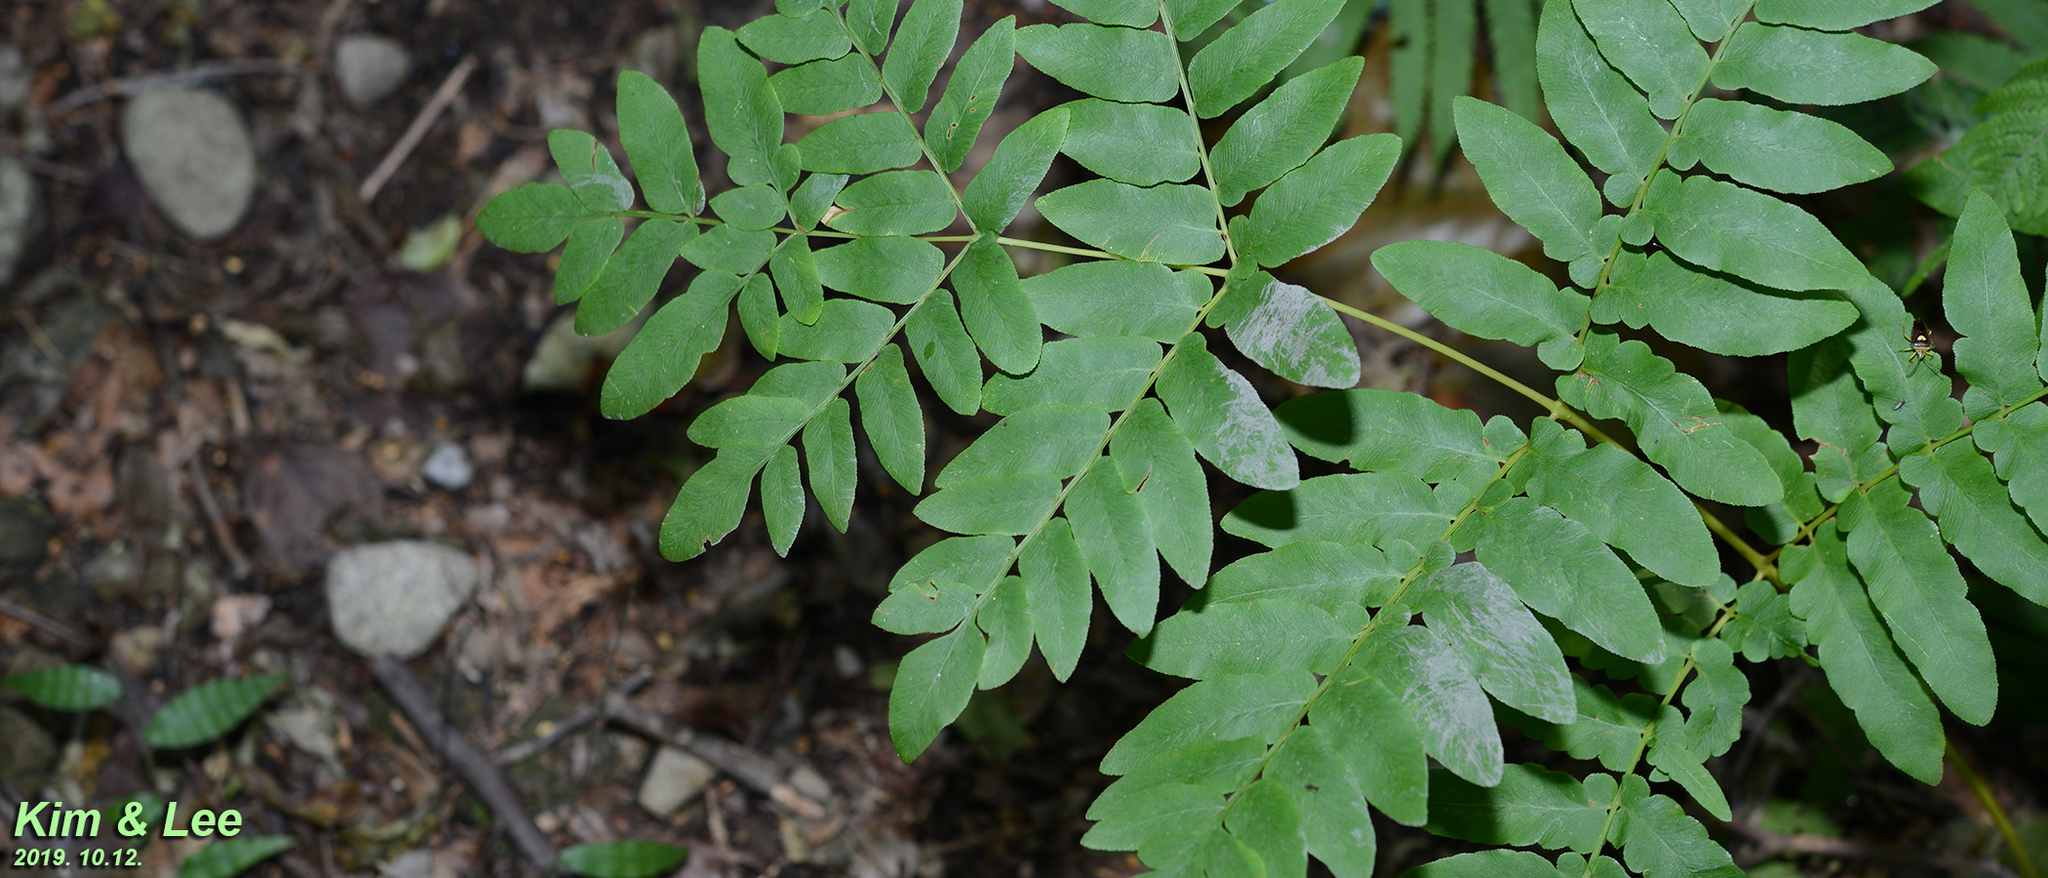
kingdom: Plantae
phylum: Tracheophyta
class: Polypodiopsida
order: Osmundales
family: Osmundaceae
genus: Osmunda
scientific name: Osmunda japonica
